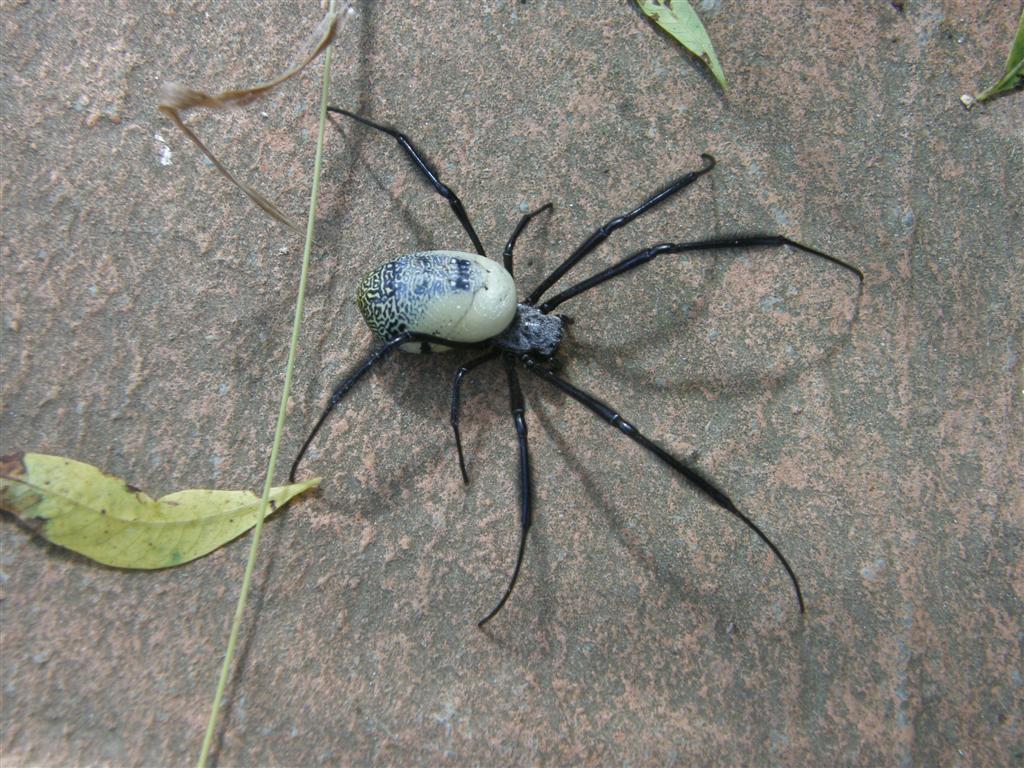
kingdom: Animalia
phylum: Arthropoda
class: Arachnida
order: Araneae
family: Araneidae
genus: Trichonephila
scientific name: Trichonephila fenestrata
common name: Hairy golden orb weaver
